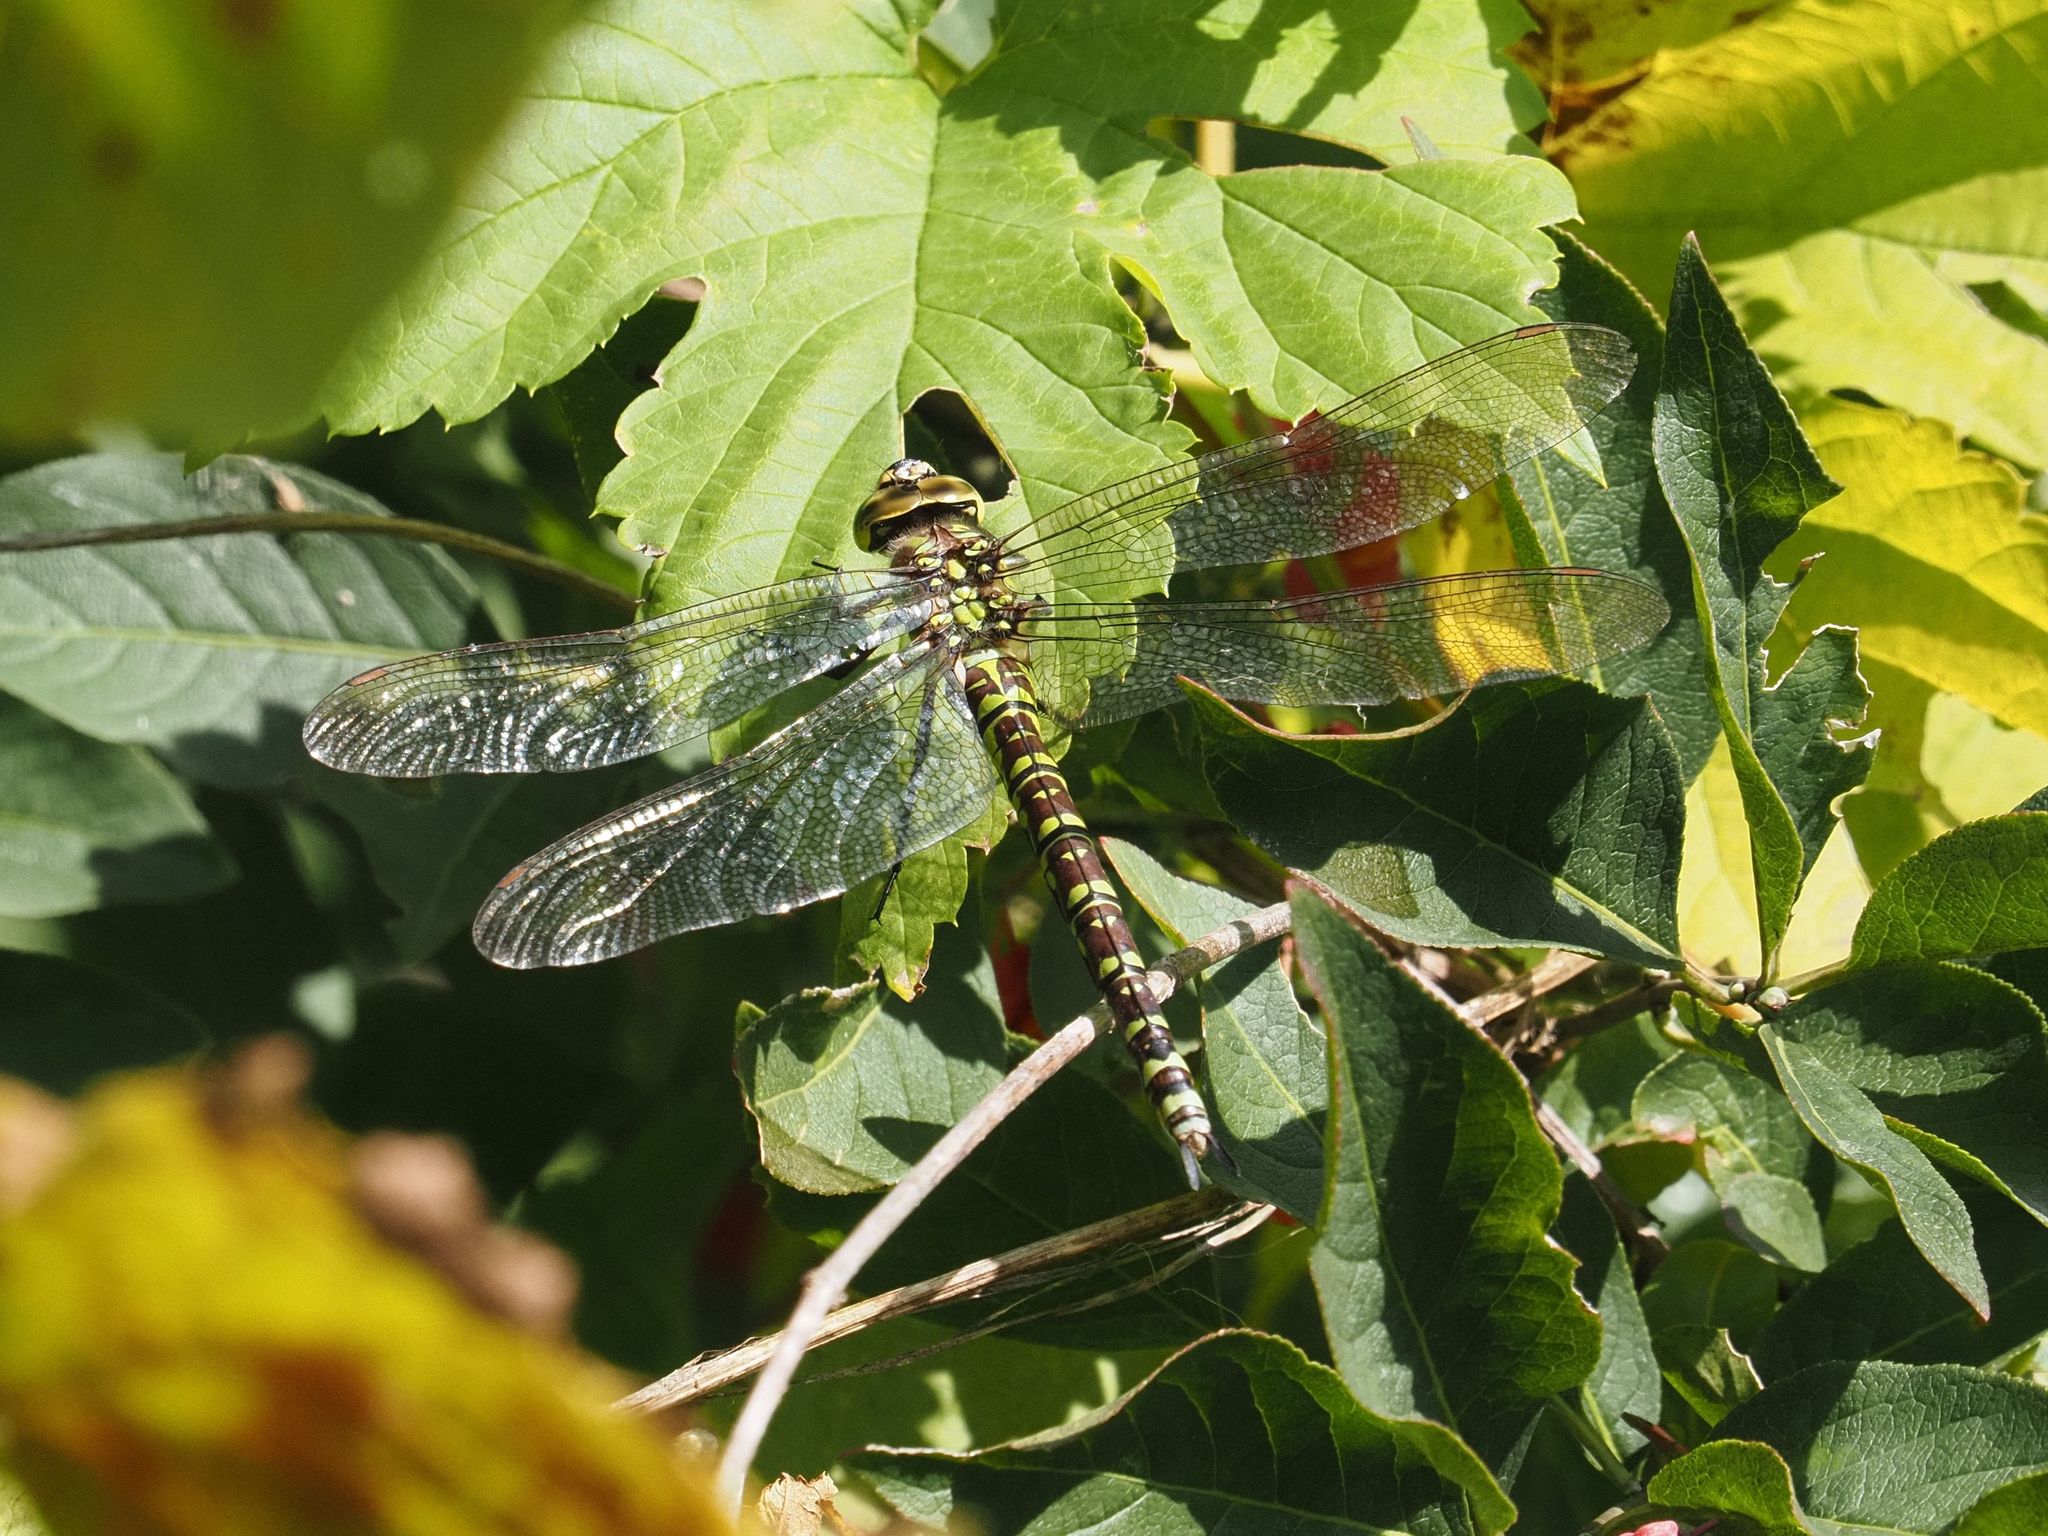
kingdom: Animalia
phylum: Arthropoda
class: Insecta
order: Odonata
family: Aeshnidae
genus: Aeshna
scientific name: Aeshna cyanea
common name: Southern hawker
